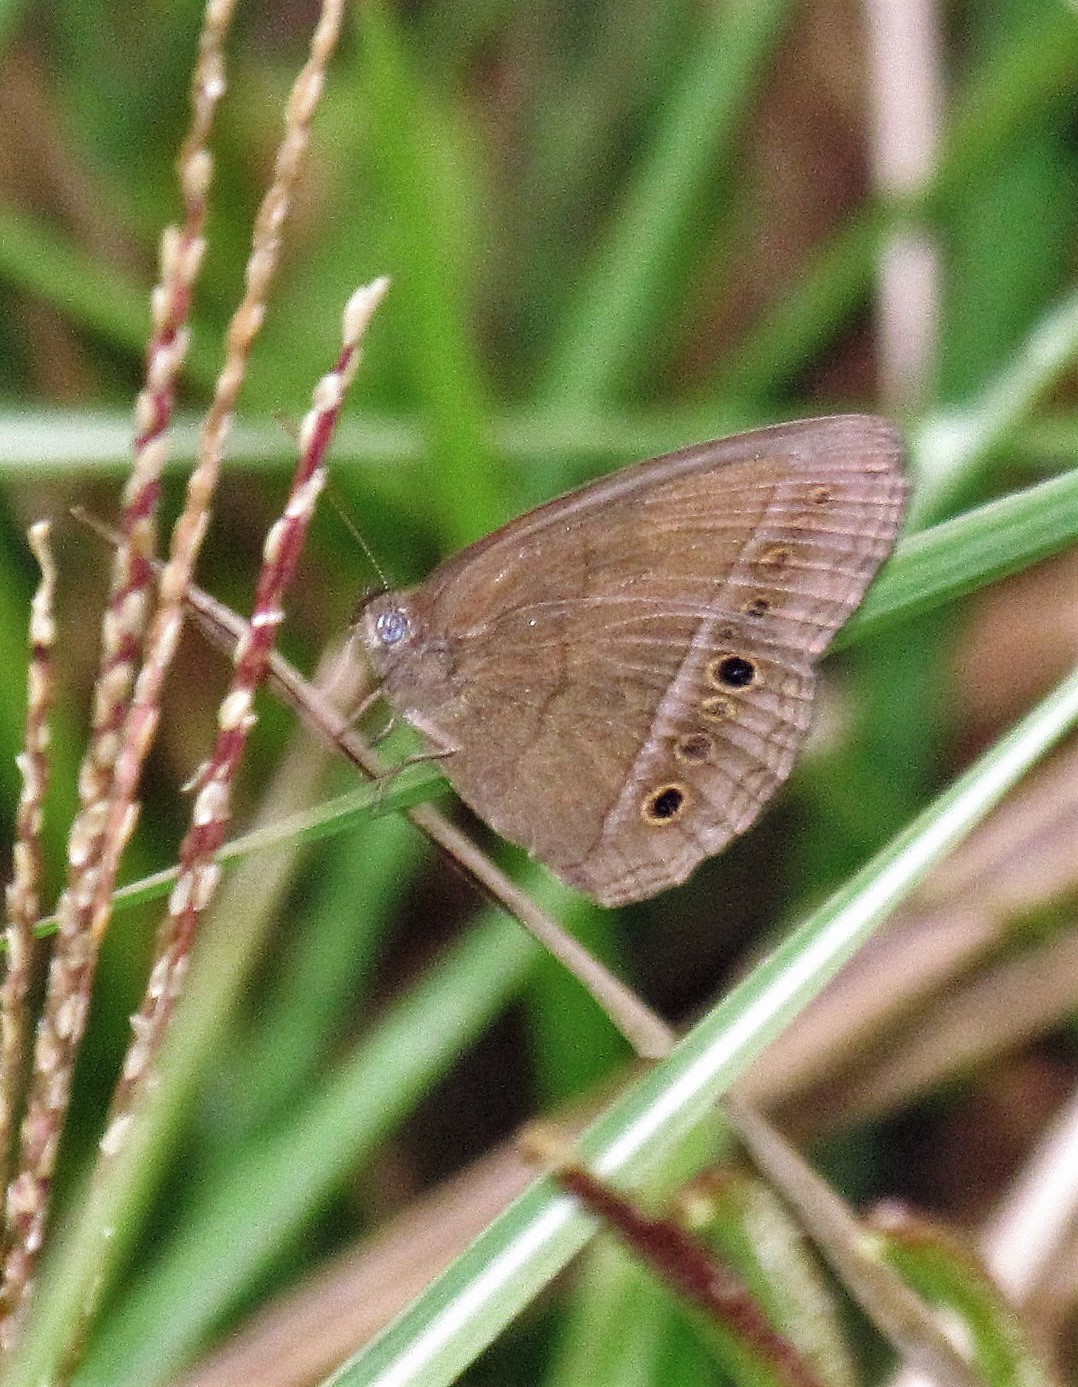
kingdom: Animalia
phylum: Arthropoda
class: Insecta
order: Lepidoptera
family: Nymphalidae
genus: Capronnieria
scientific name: Capronnieria
